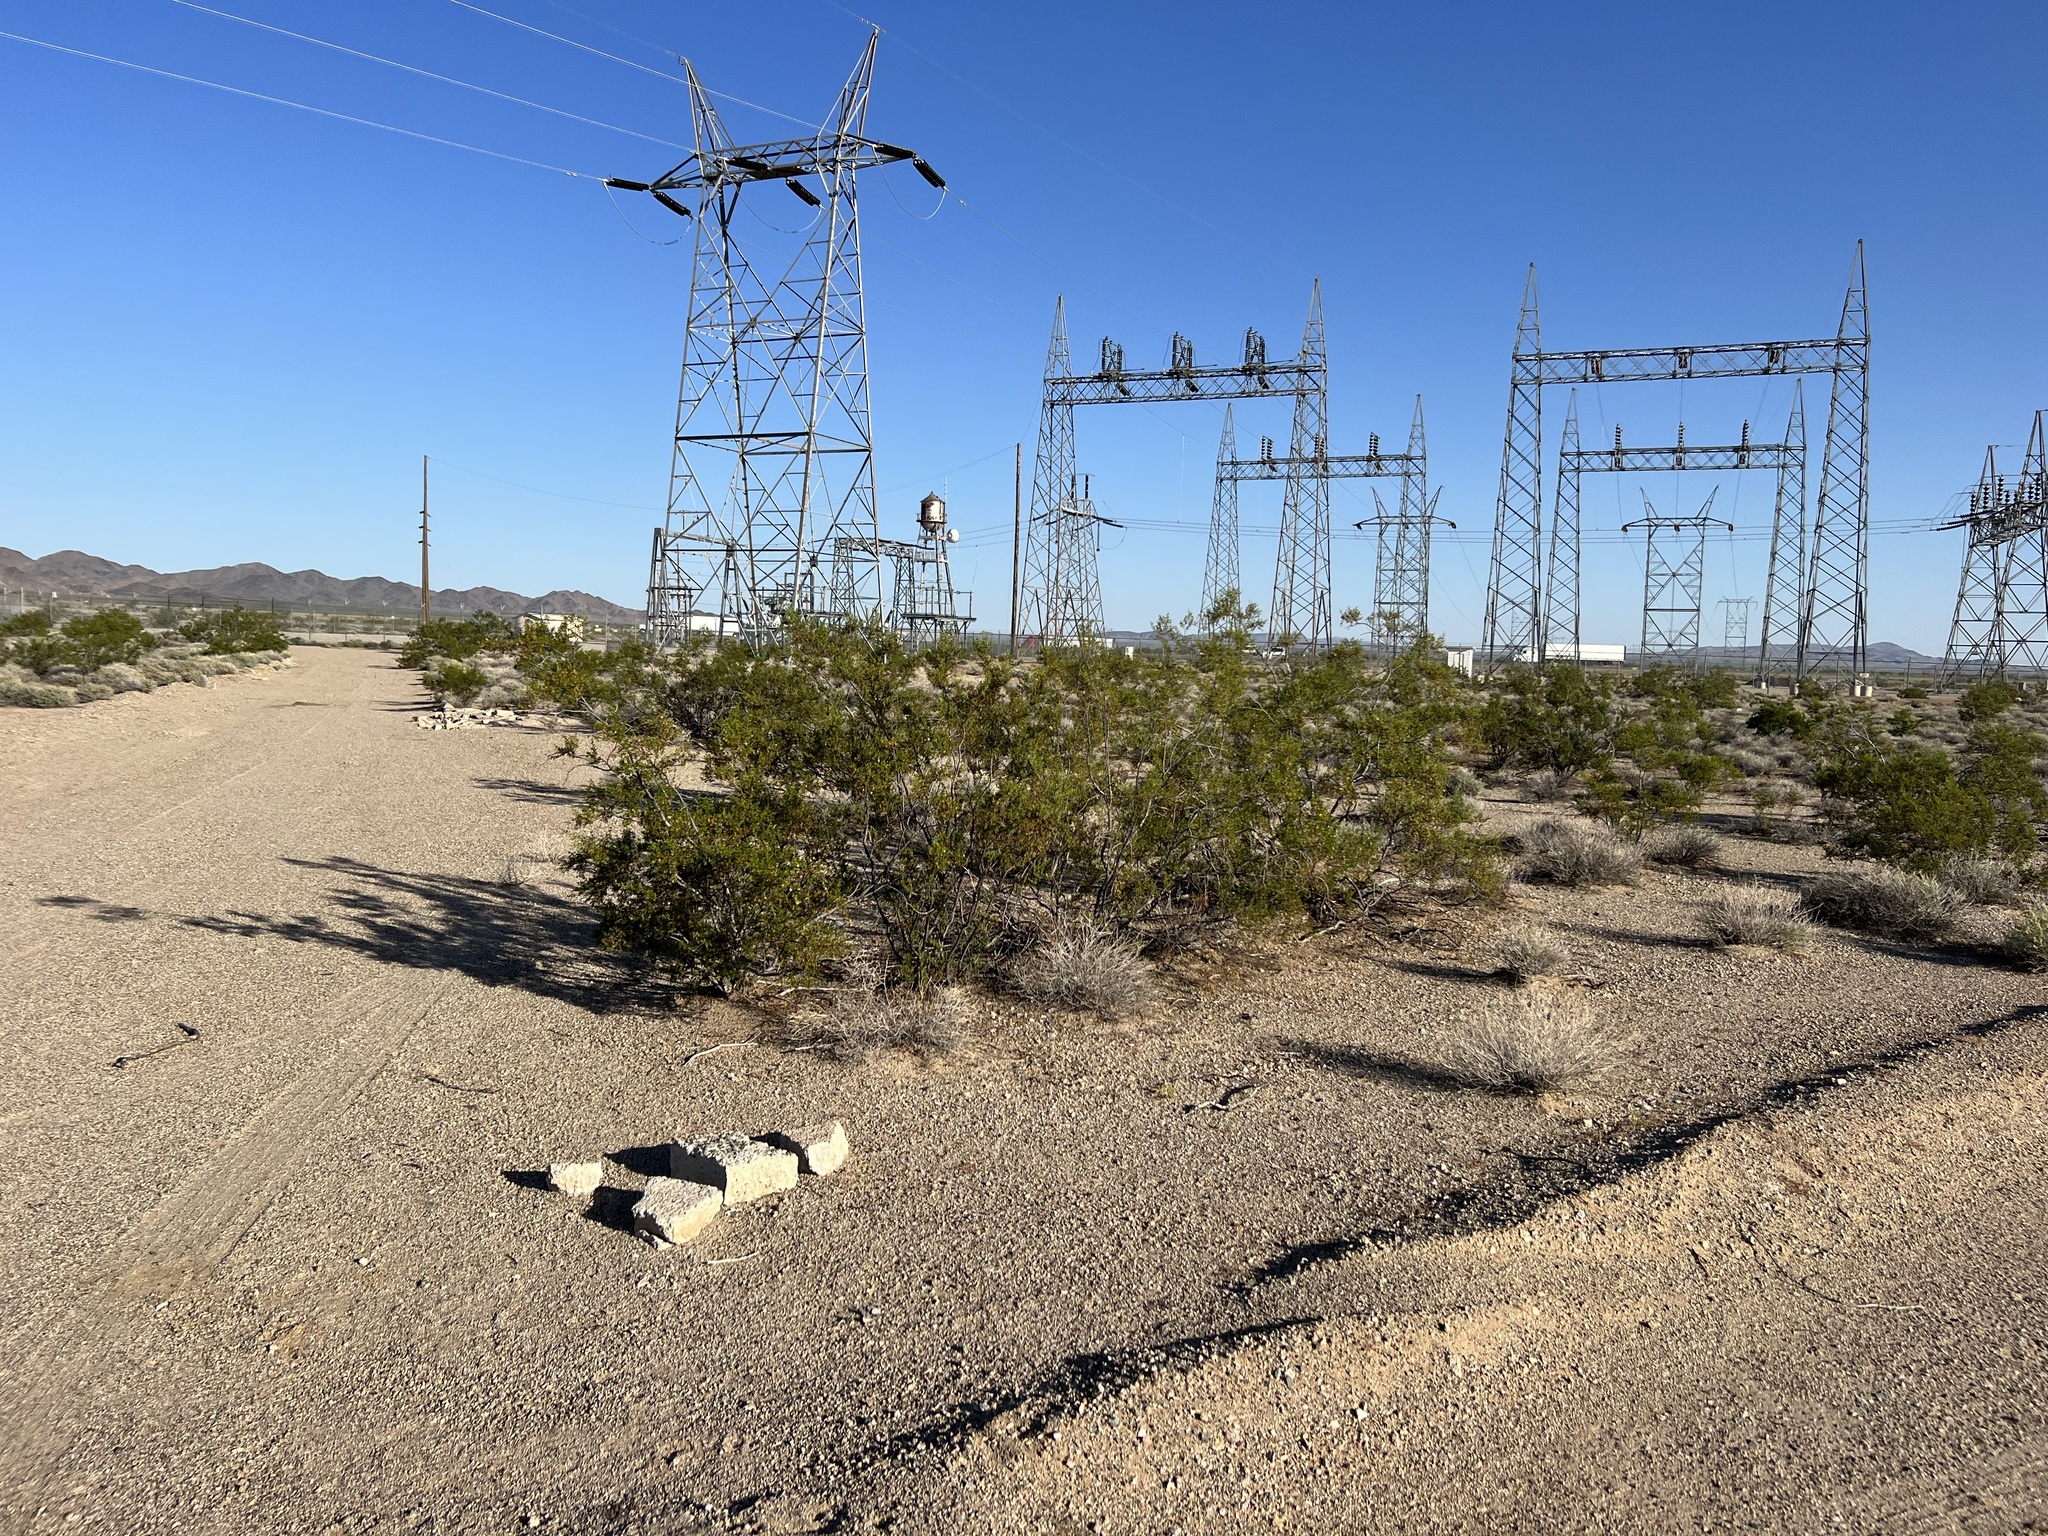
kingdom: Plantae
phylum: Tracheophyta
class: Magnoliopsida
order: Zygophyllales
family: Zygophyllaceae
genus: Larrea
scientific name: Larrea tridentata
